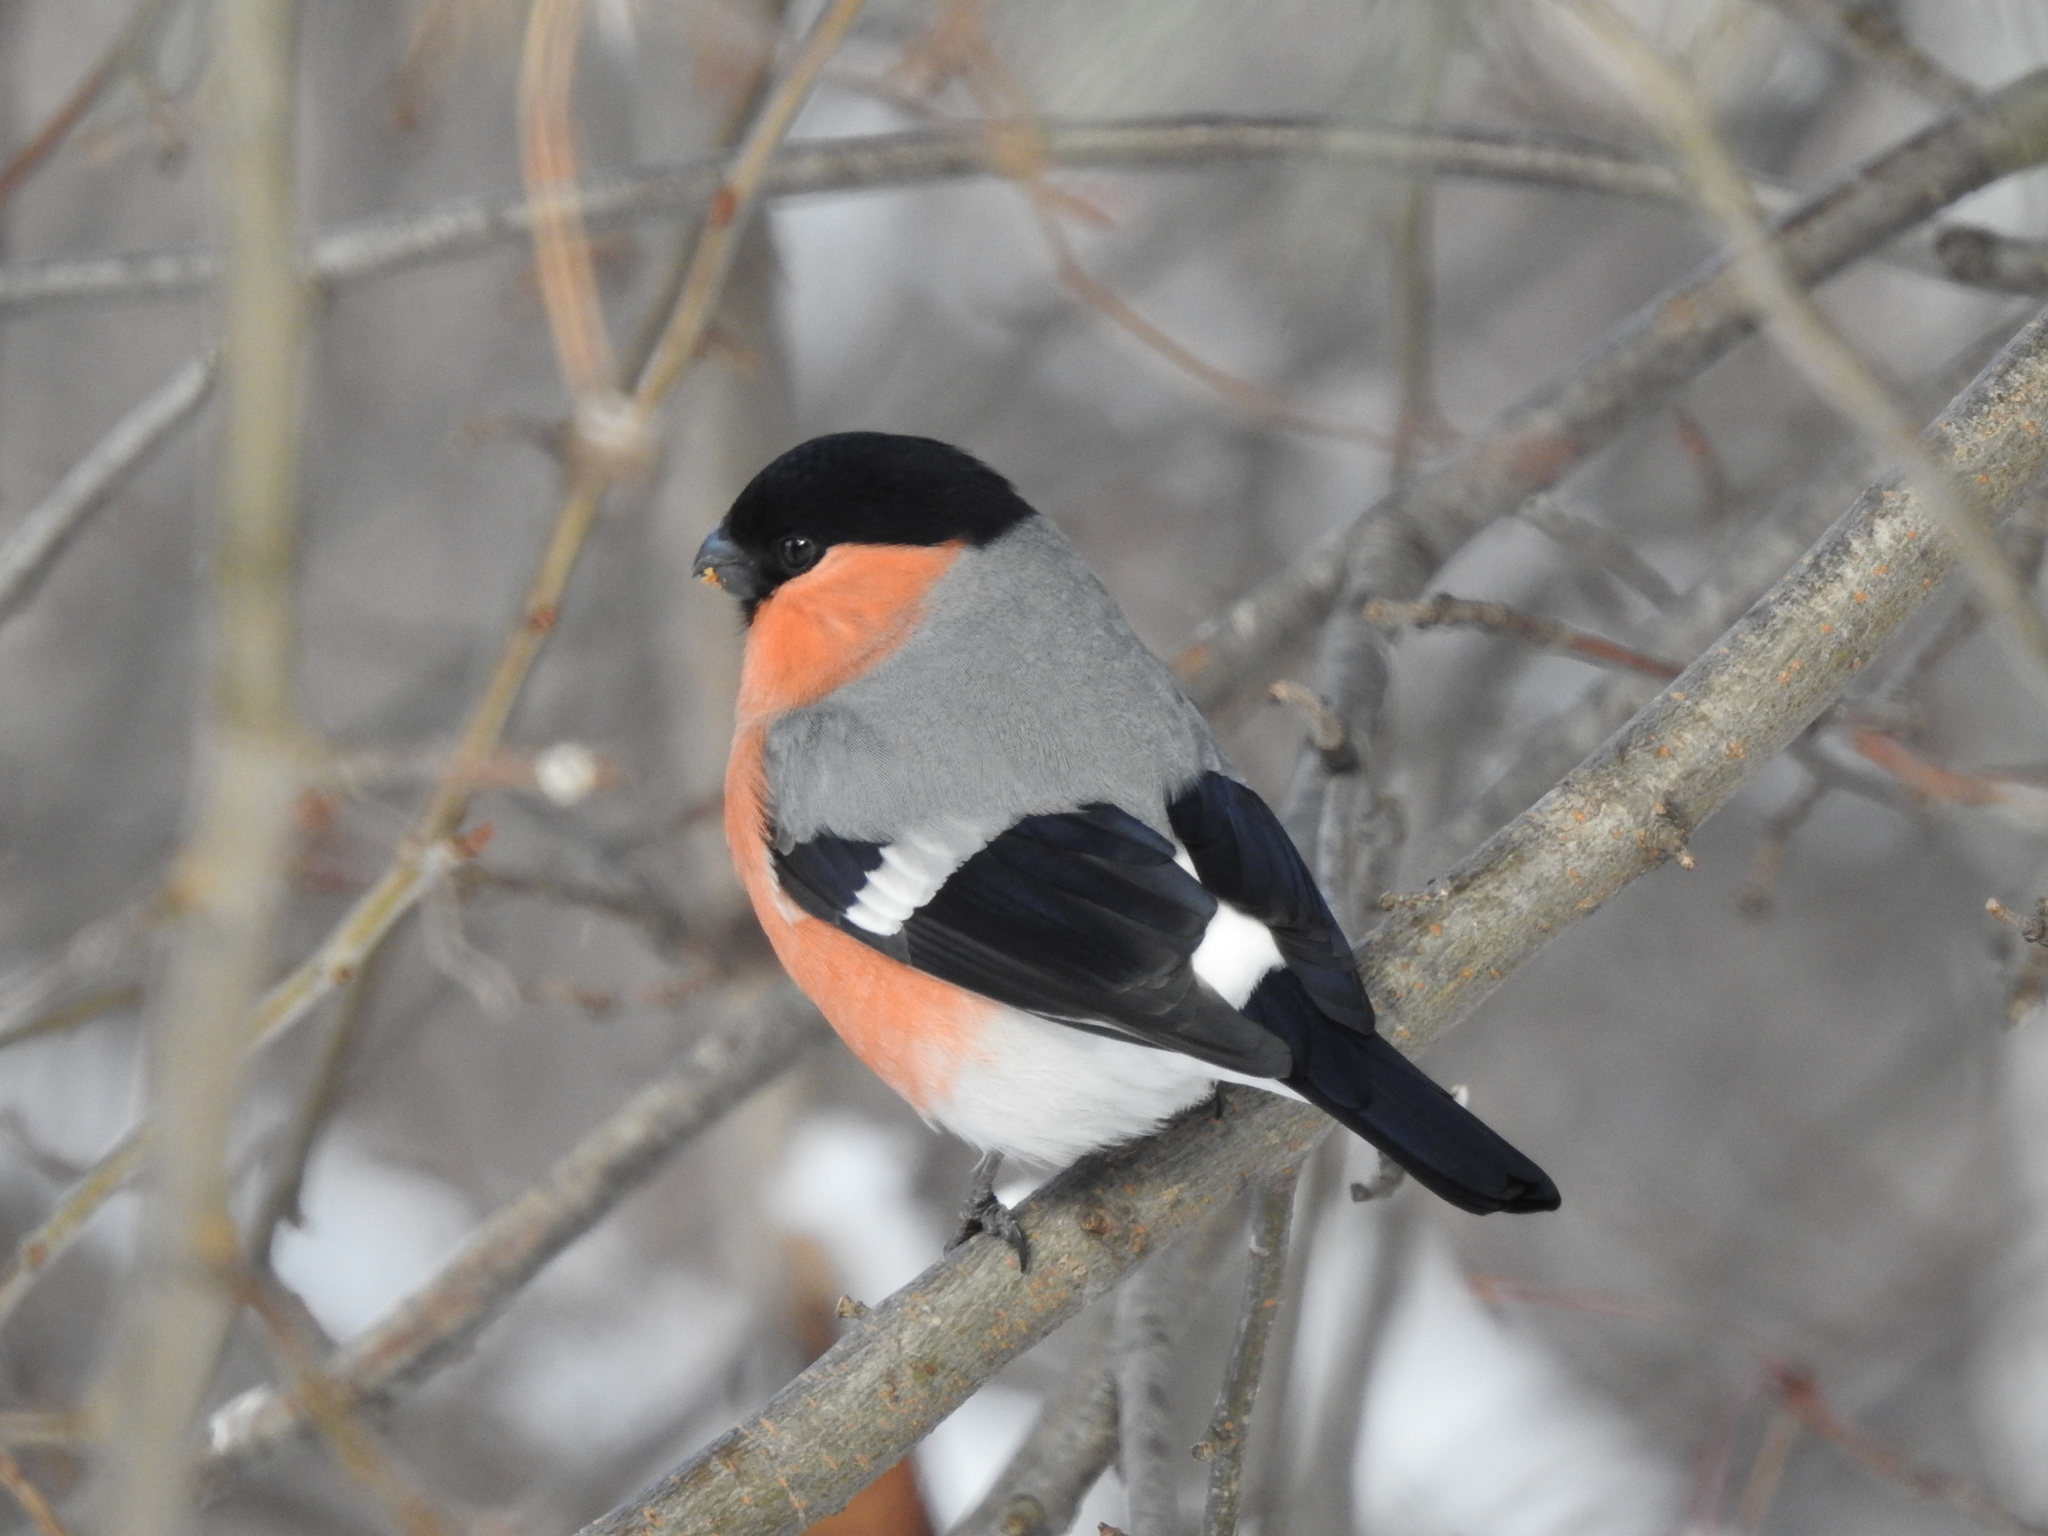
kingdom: Animalia
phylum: Chordata
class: Aves
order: Passeriformes
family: Fringillidae
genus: Pyrrhula
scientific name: Pyrrhula pyrrhula
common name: Eurasian bullfinch
